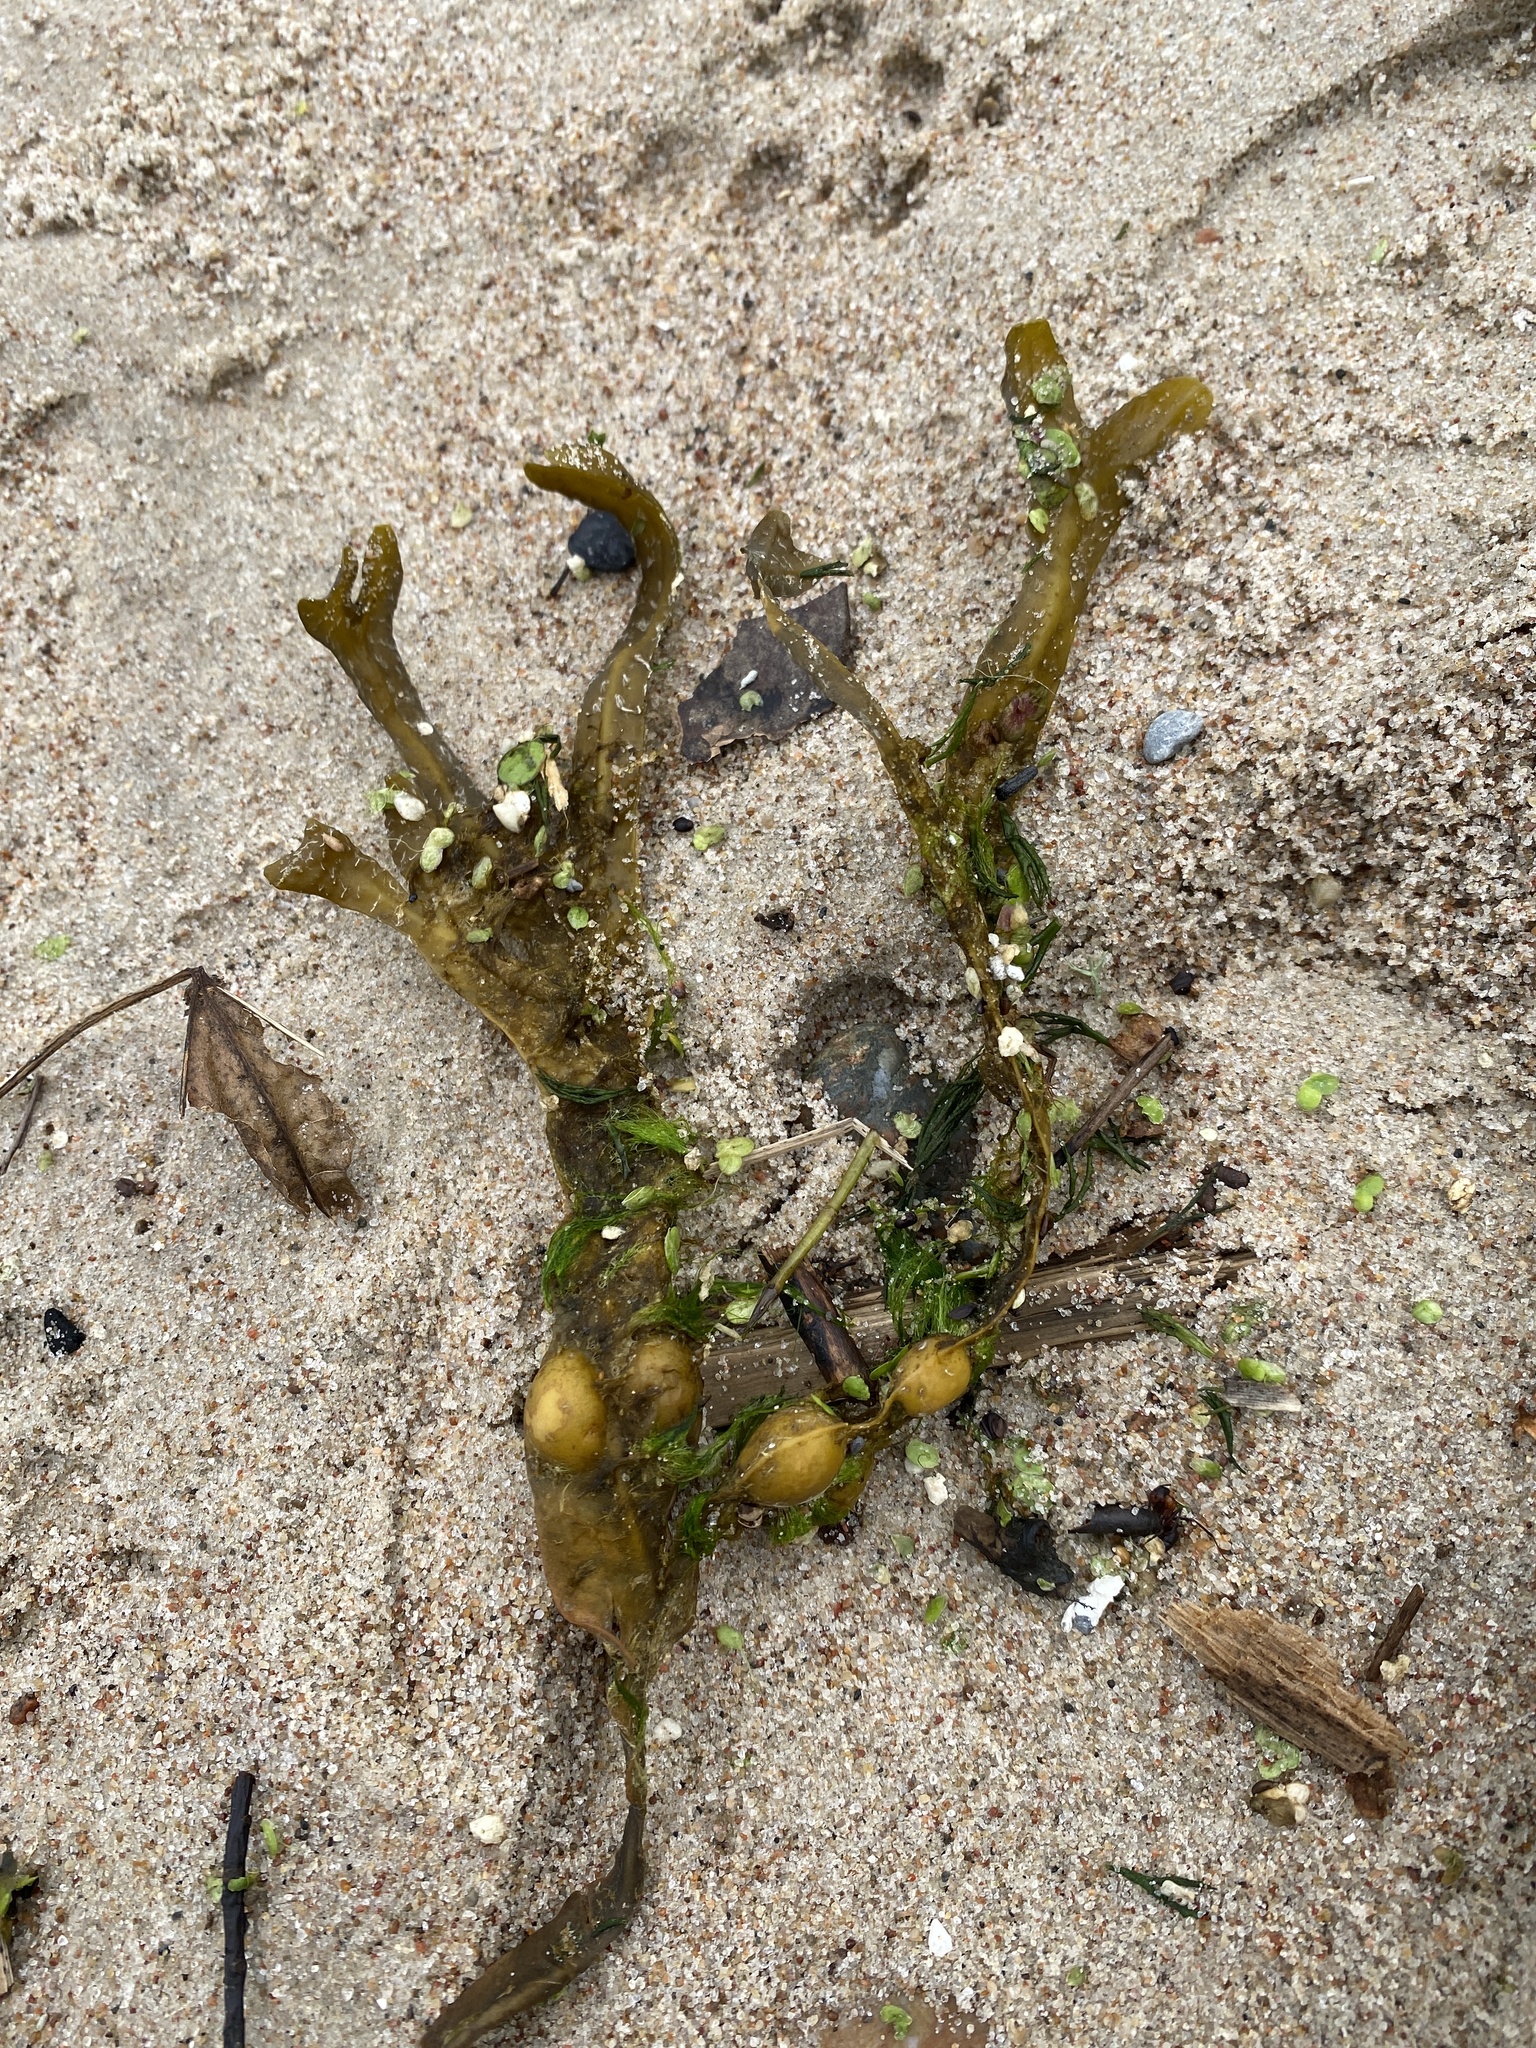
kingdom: Chromista
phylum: Ochrophyta
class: Phaeophyceae
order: Fucales
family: Fucaceae
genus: Fucus
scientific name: Fucus vesiculosus
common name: Bladder wrack
